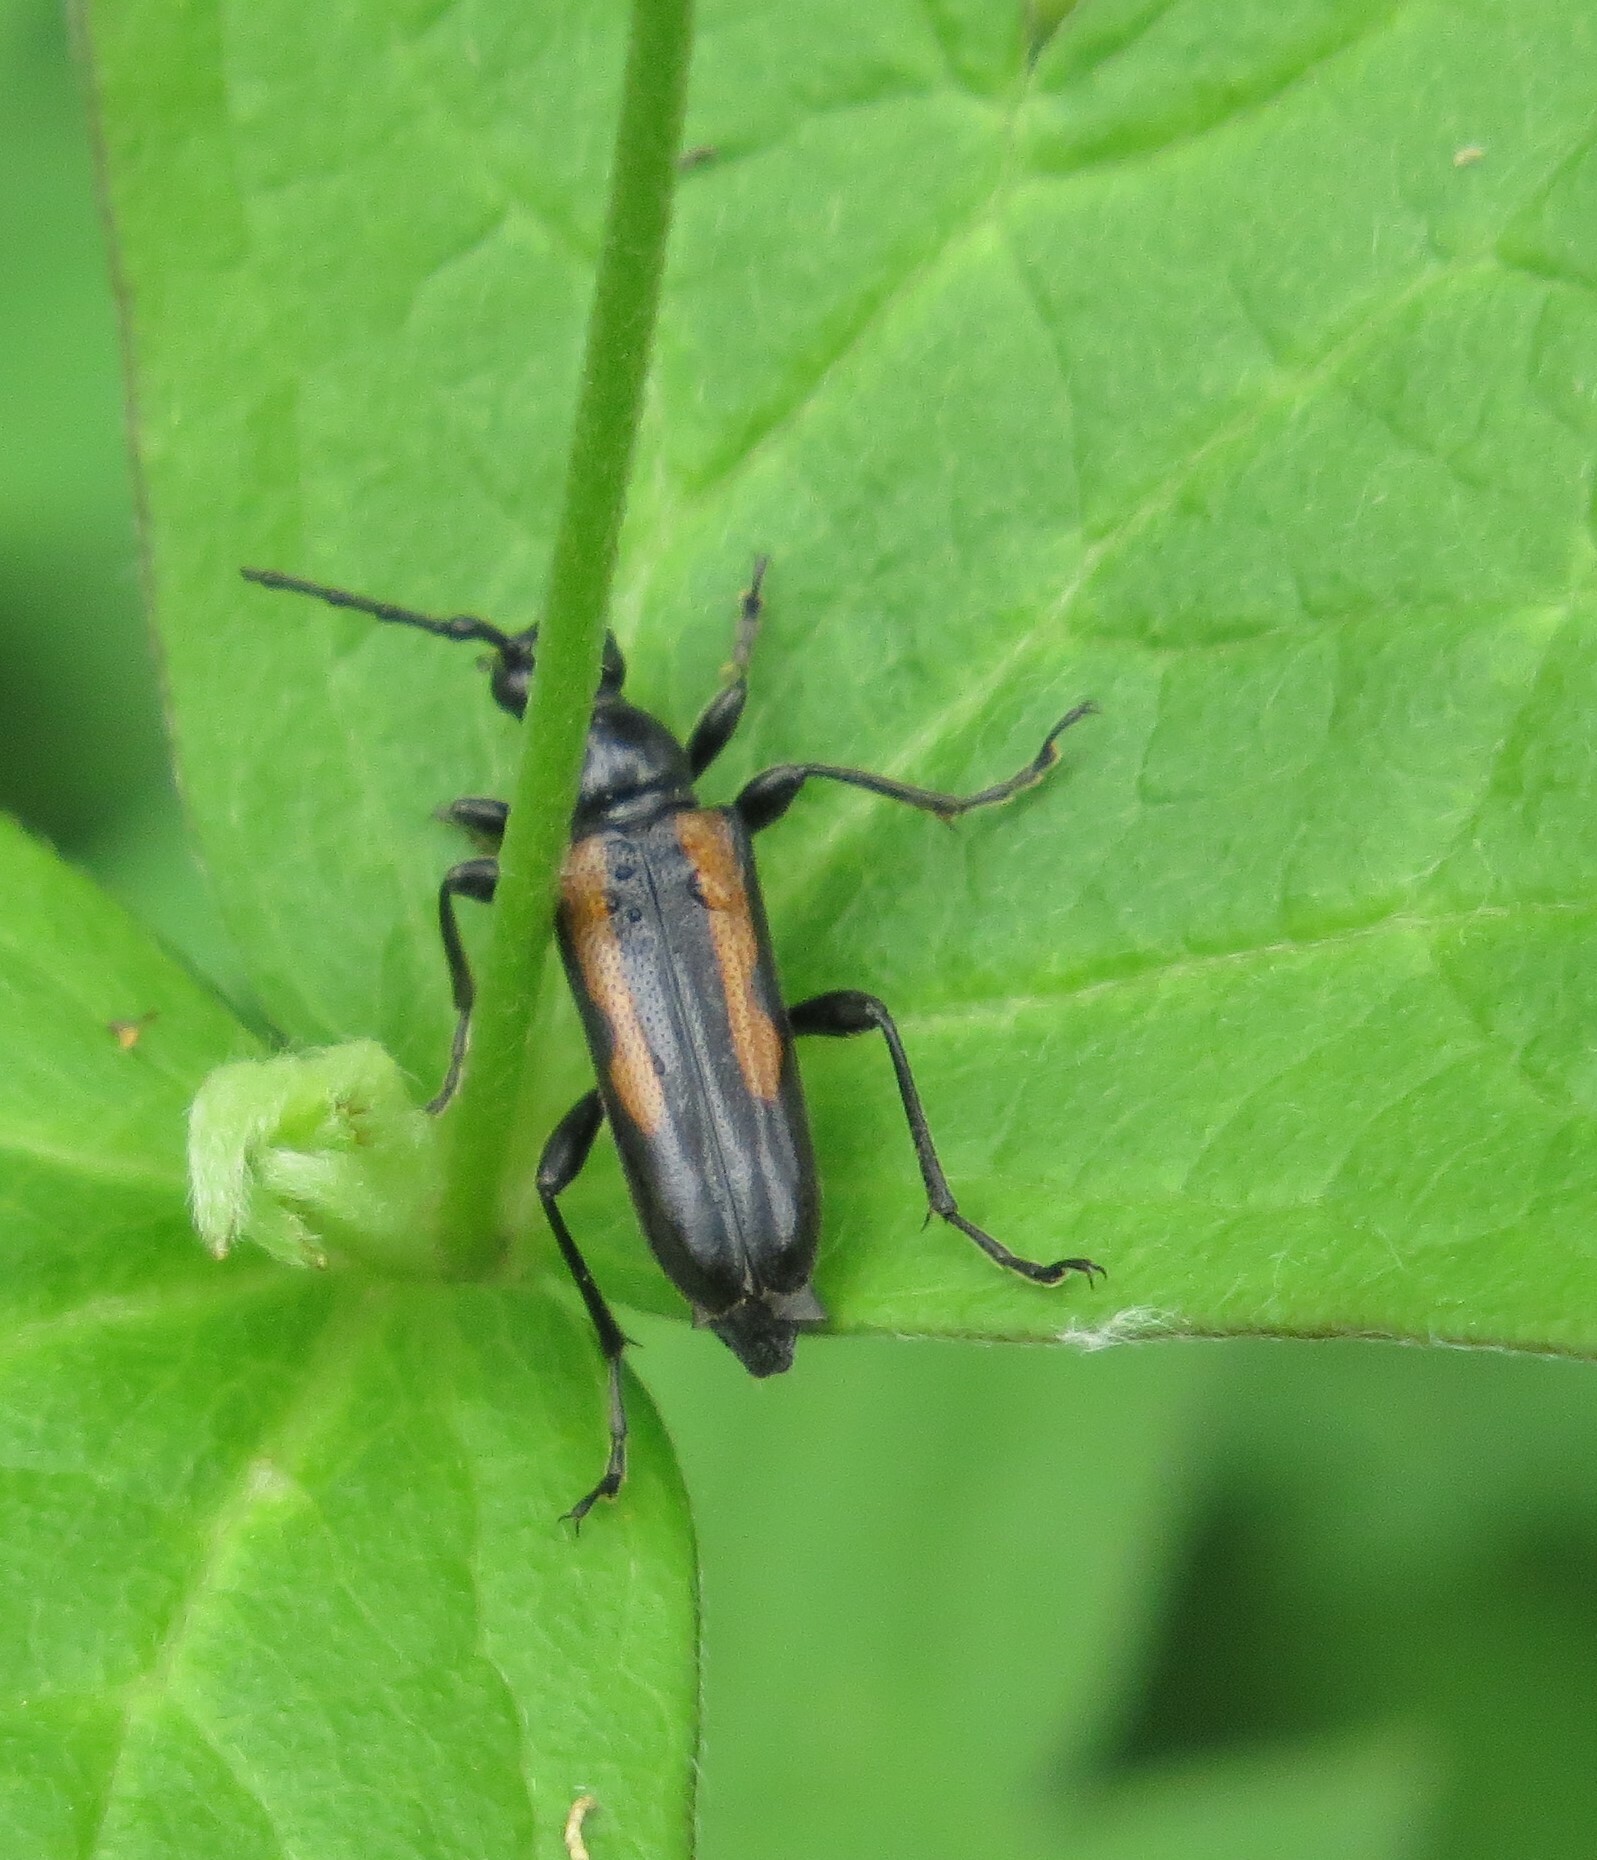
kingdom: Animalia
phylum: Arthropoda
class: Insecta
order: Coleoptera
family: Cerambycidae
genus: Strangalepta
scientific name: Strangalepta abbreviata
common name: Strangalepta flower longhorn beetle
